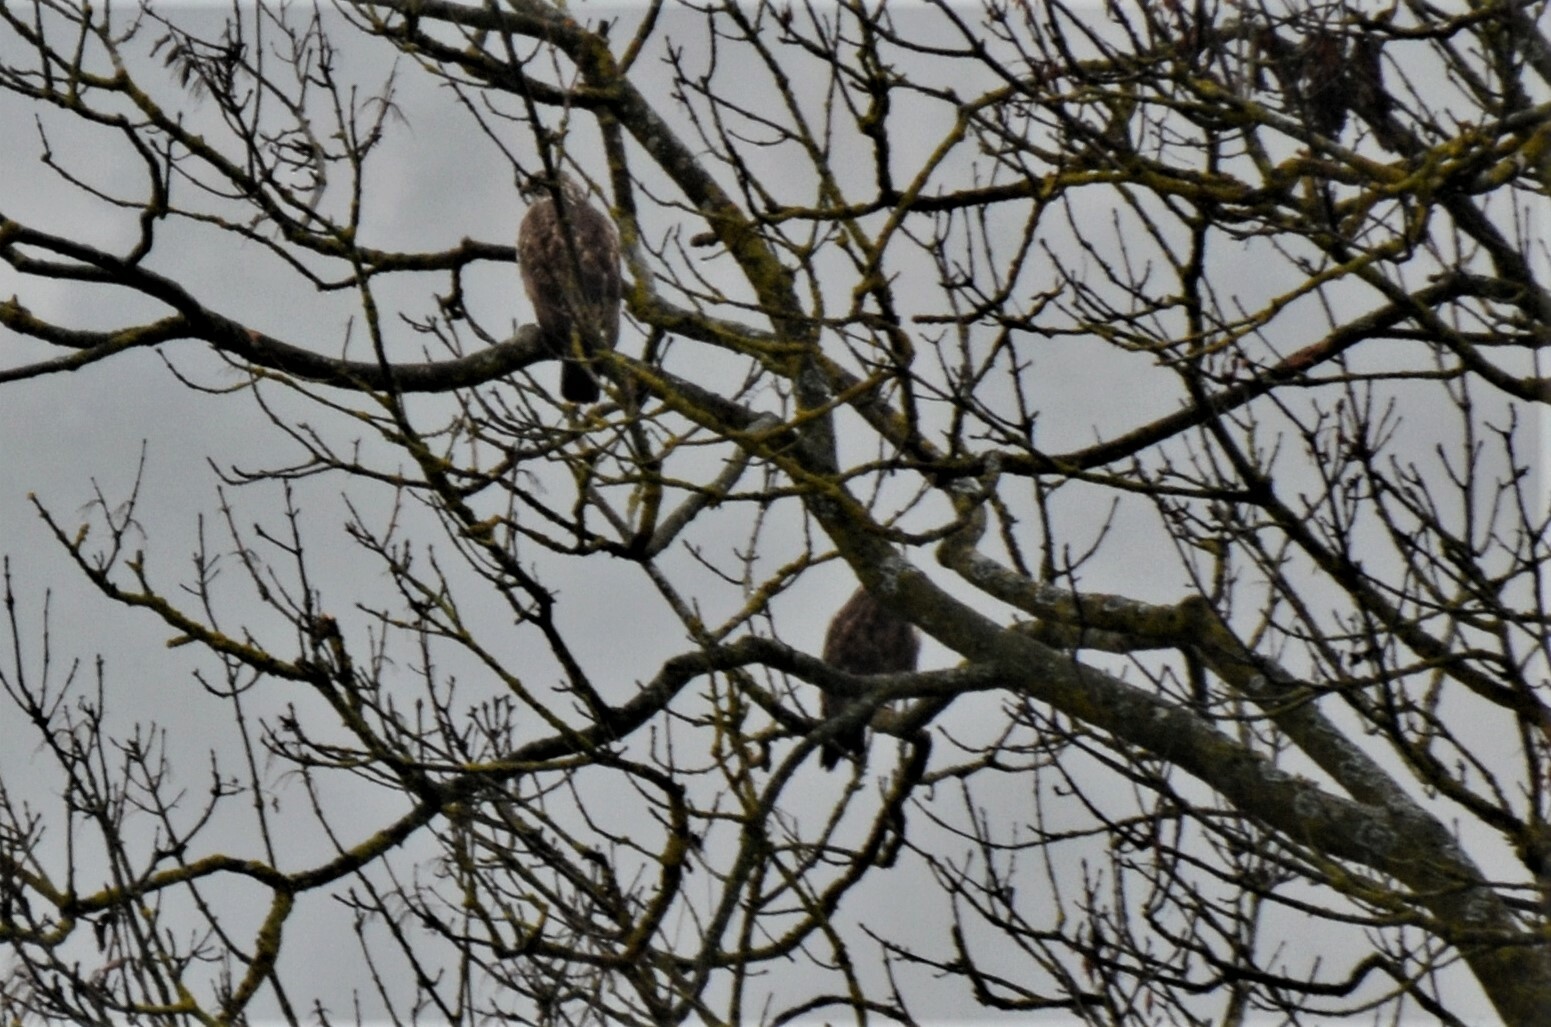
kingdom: Animalia
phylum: Chordata
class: Aves
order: Accipitriformes
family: Accipitridae
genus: Buteo
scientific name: Buteo buteo
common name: Common buzzard
